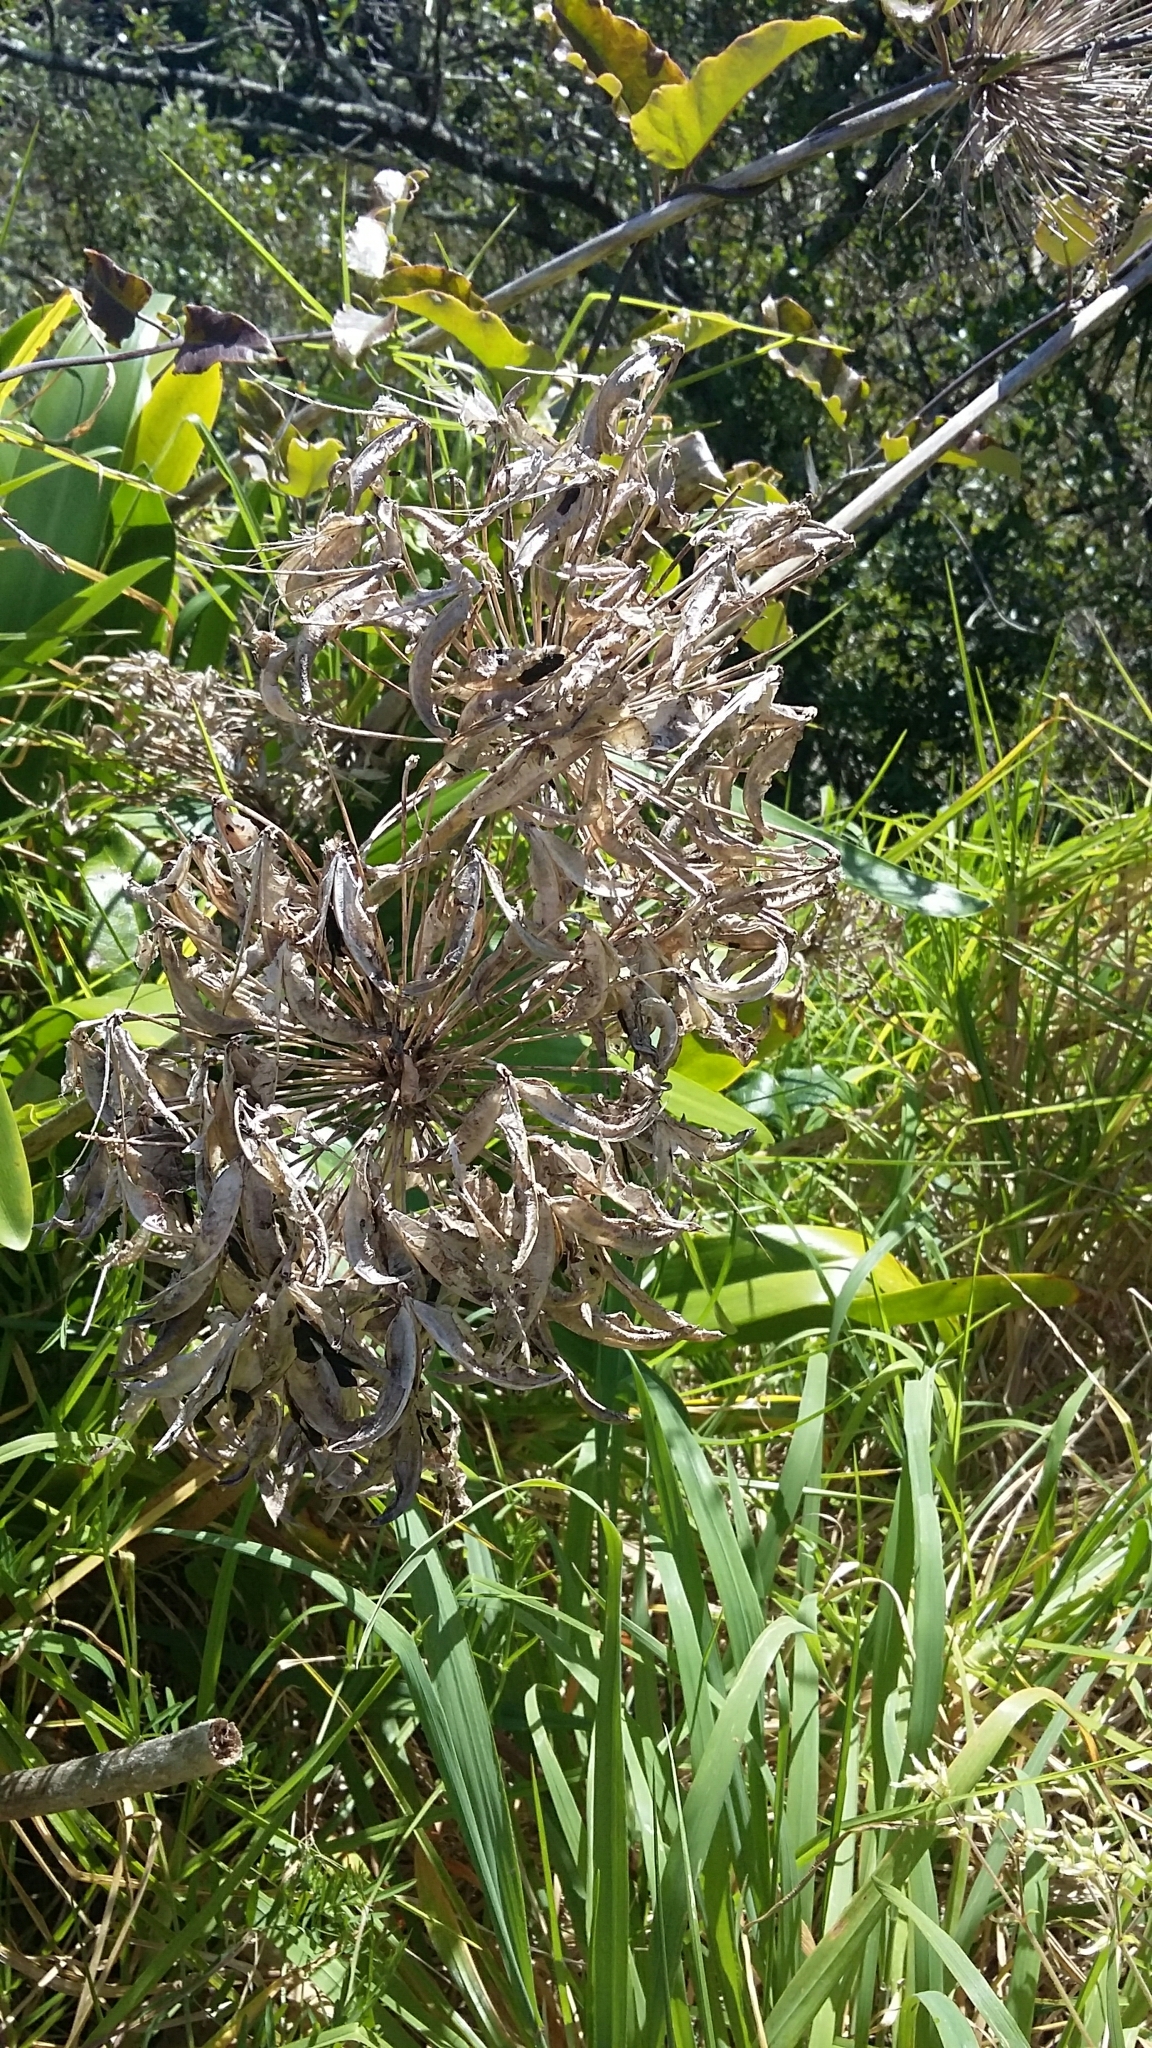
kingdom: Plantae
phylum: Tracheophyta
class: Liliopsida
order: Asparagales
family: Amaryllidaceae
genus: Agapanthus
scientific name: Agapanthus praecox
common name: African-lily
